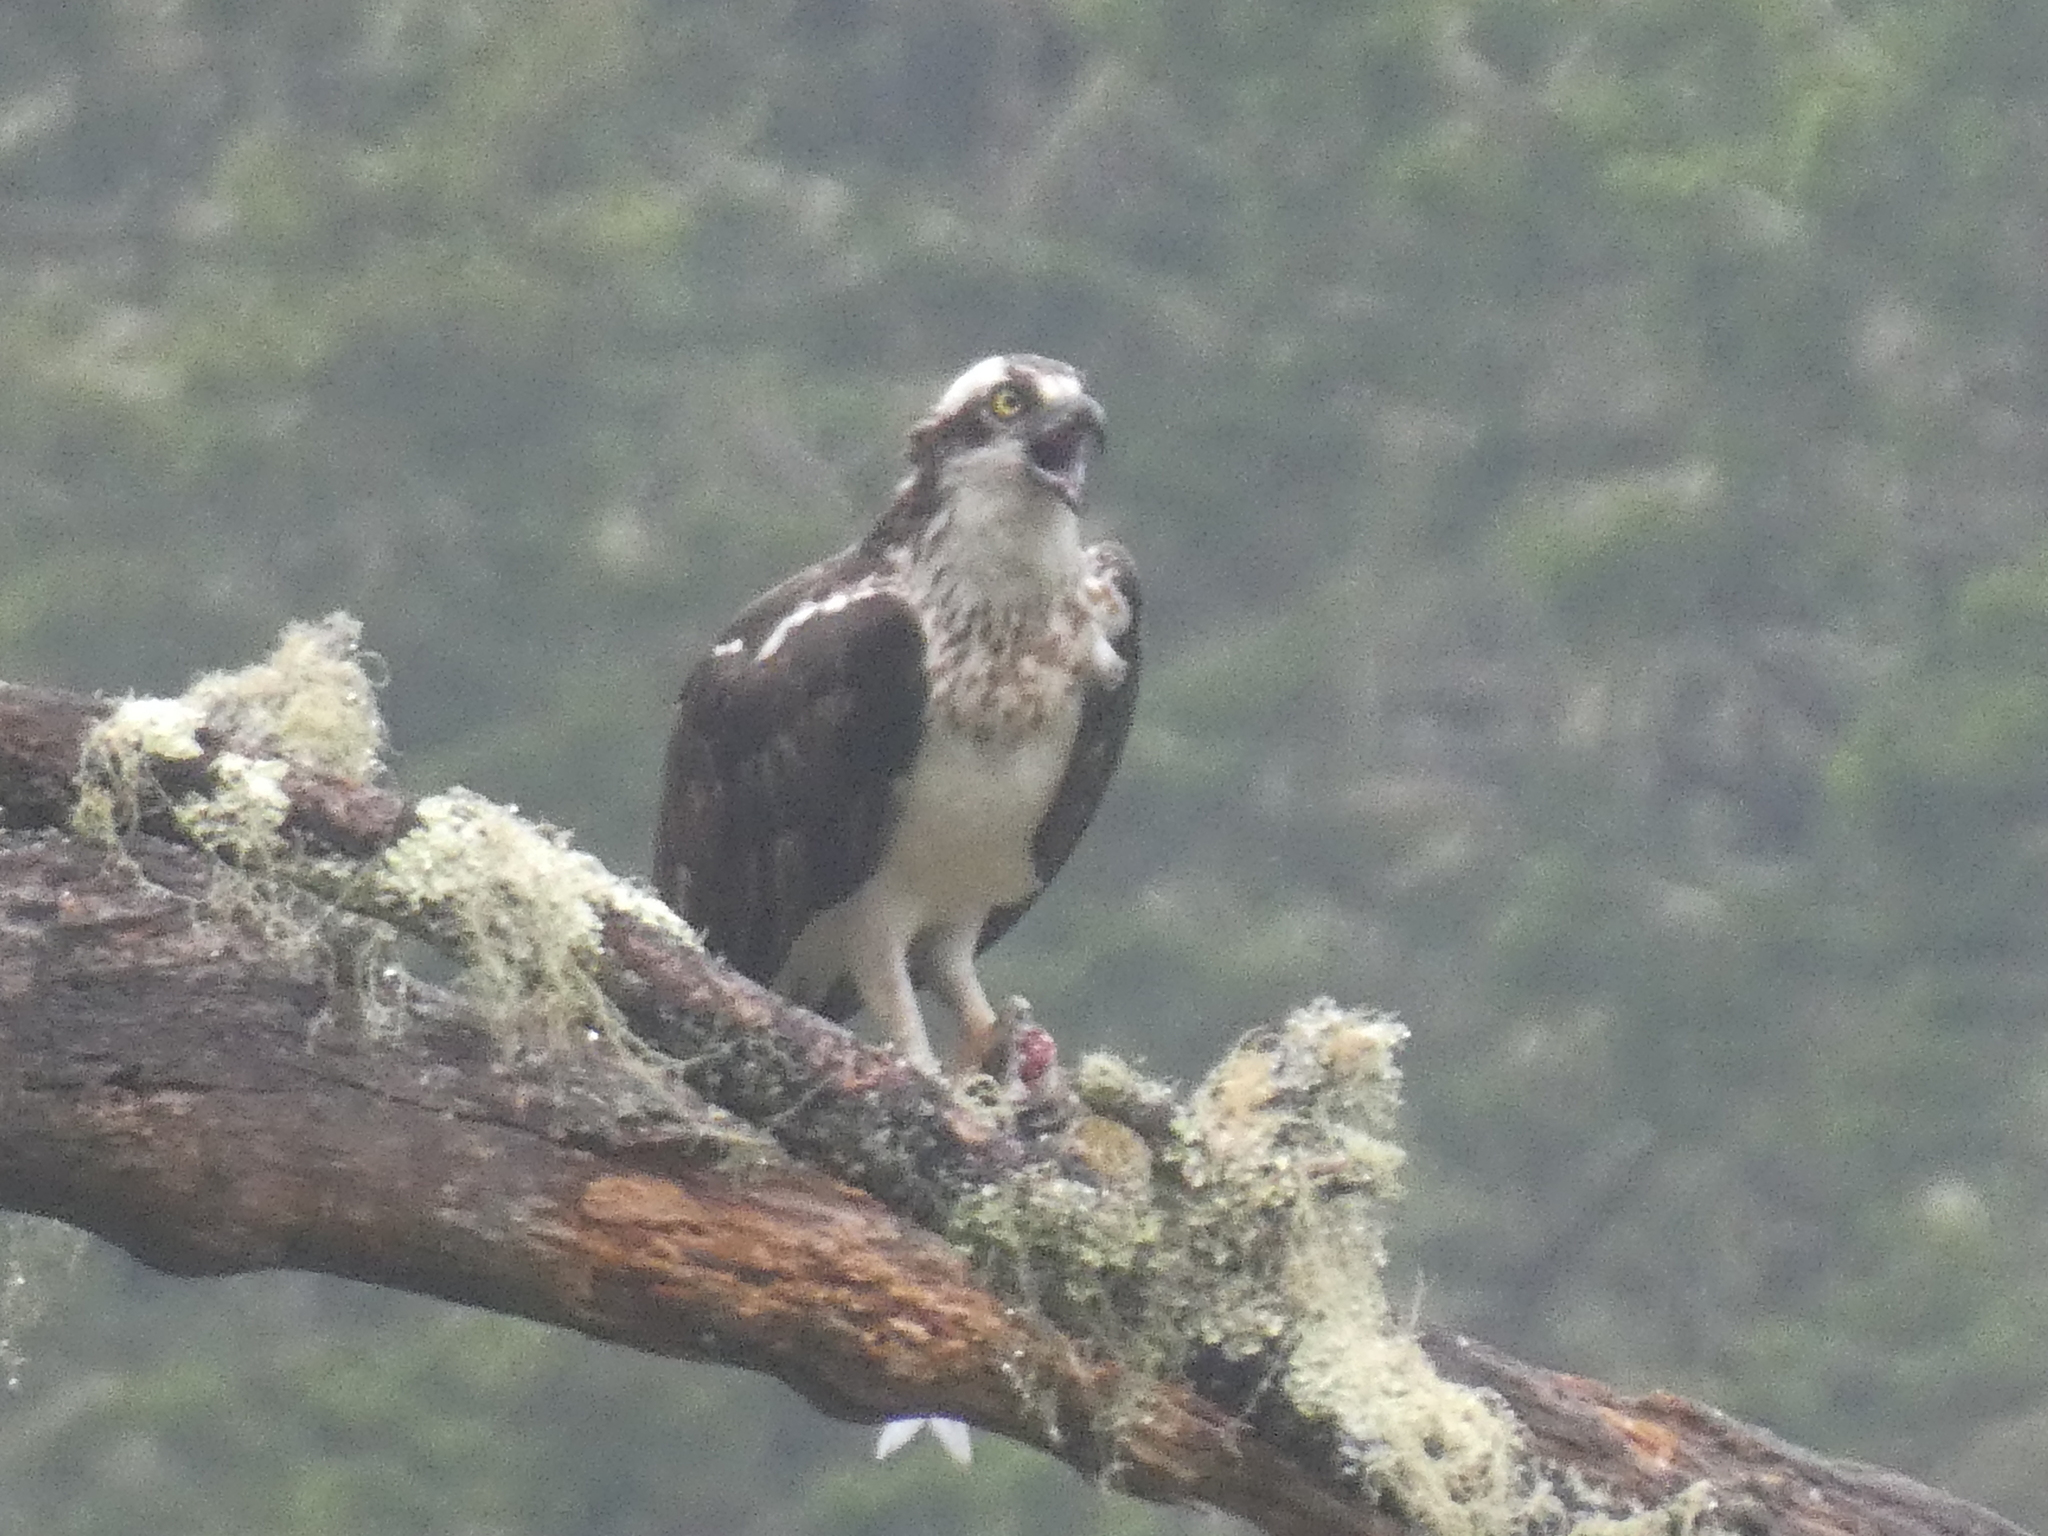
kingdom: Animalia
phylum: Chordata
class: Aves
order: Accipitriformes
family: Pandionidae
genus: Pandion
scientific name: Pandion haliaetus
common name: Osprey
